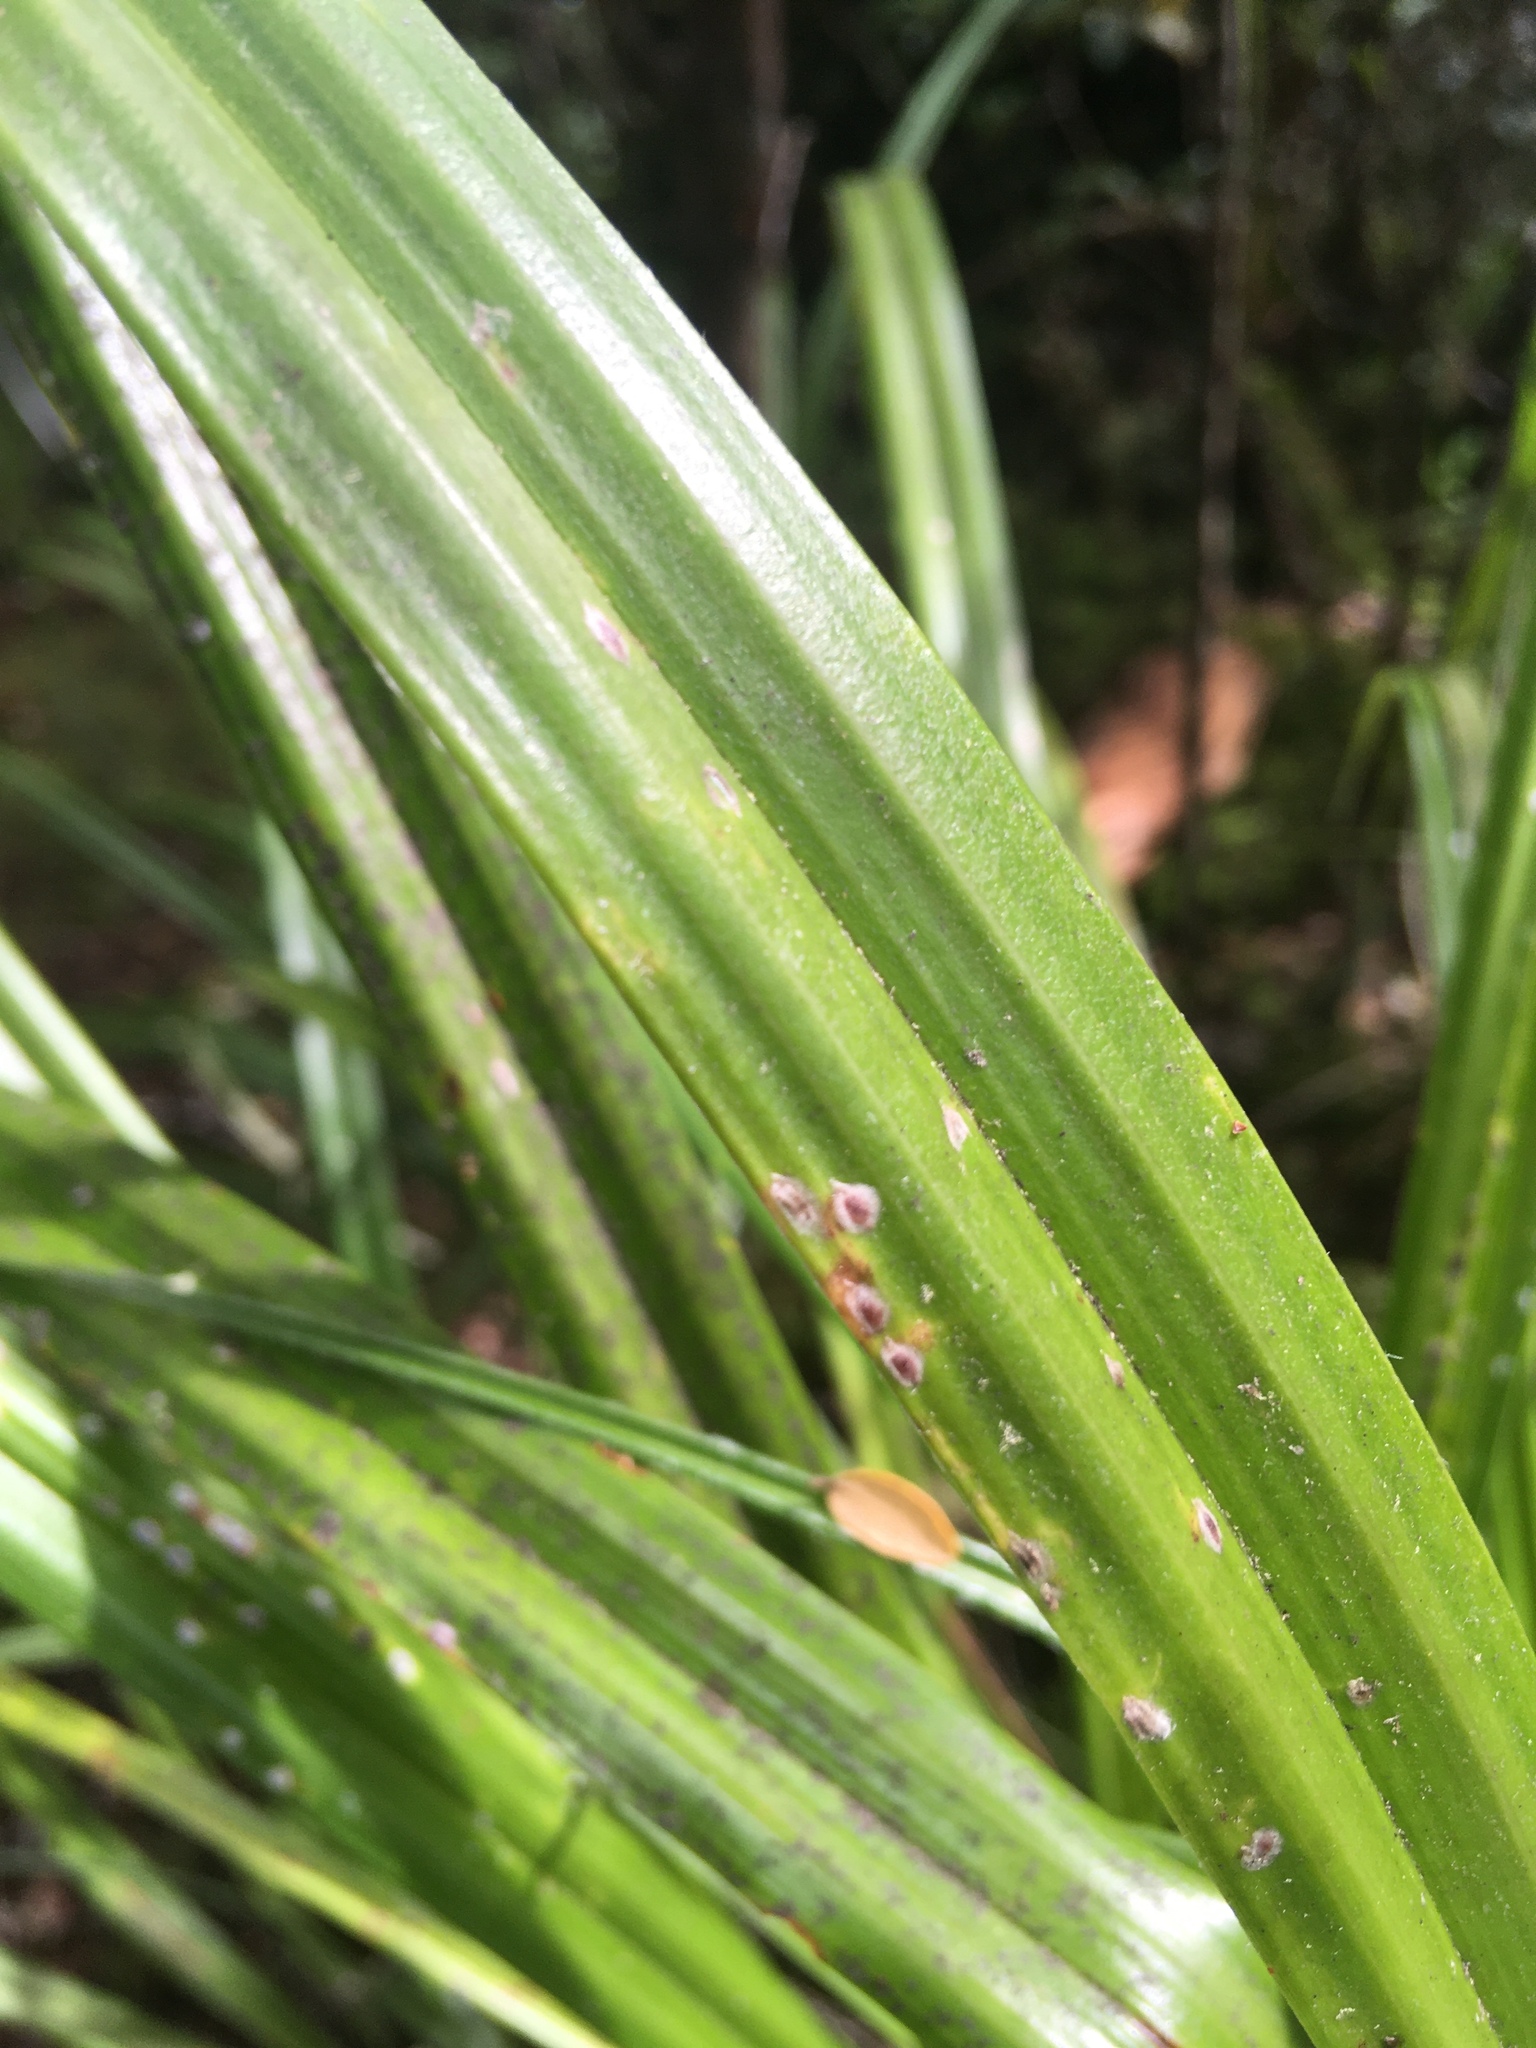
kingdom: Plantae
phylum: Tracheophyta
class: Liliopsida
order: Asparagales
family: Asteliaceae
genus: Astelia
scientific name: Astelia fragrans
